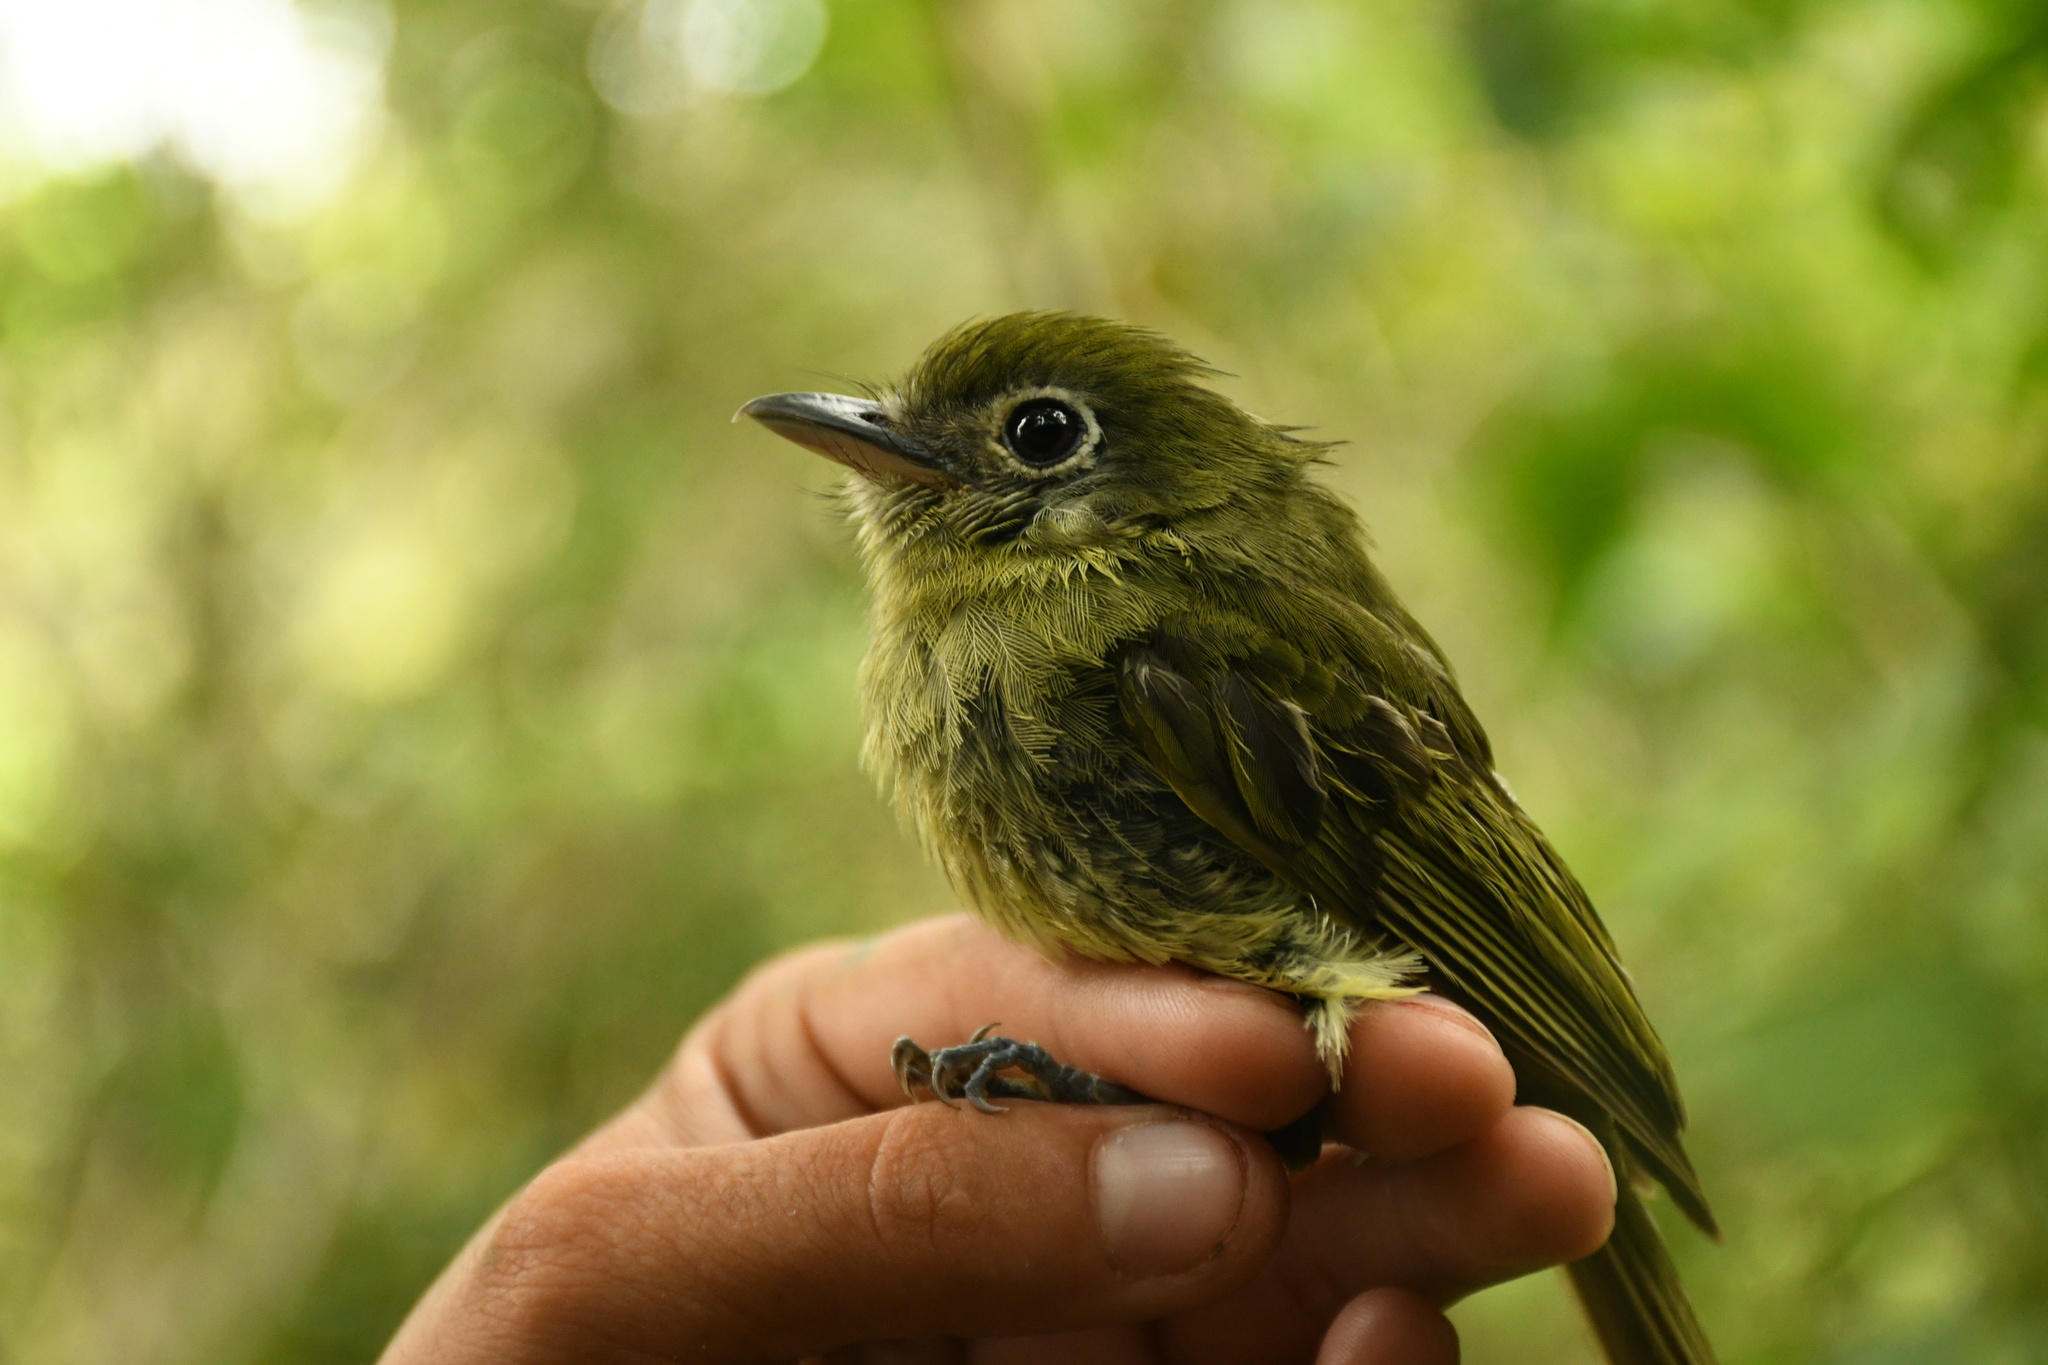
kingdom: Animalia
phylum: Chordata
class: Aves
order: Passeriformes
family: Tyrannidae
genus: Rhynchocyclus
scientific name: Rhynchocyclus brevirostris
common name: Eye-ringed flatbill
